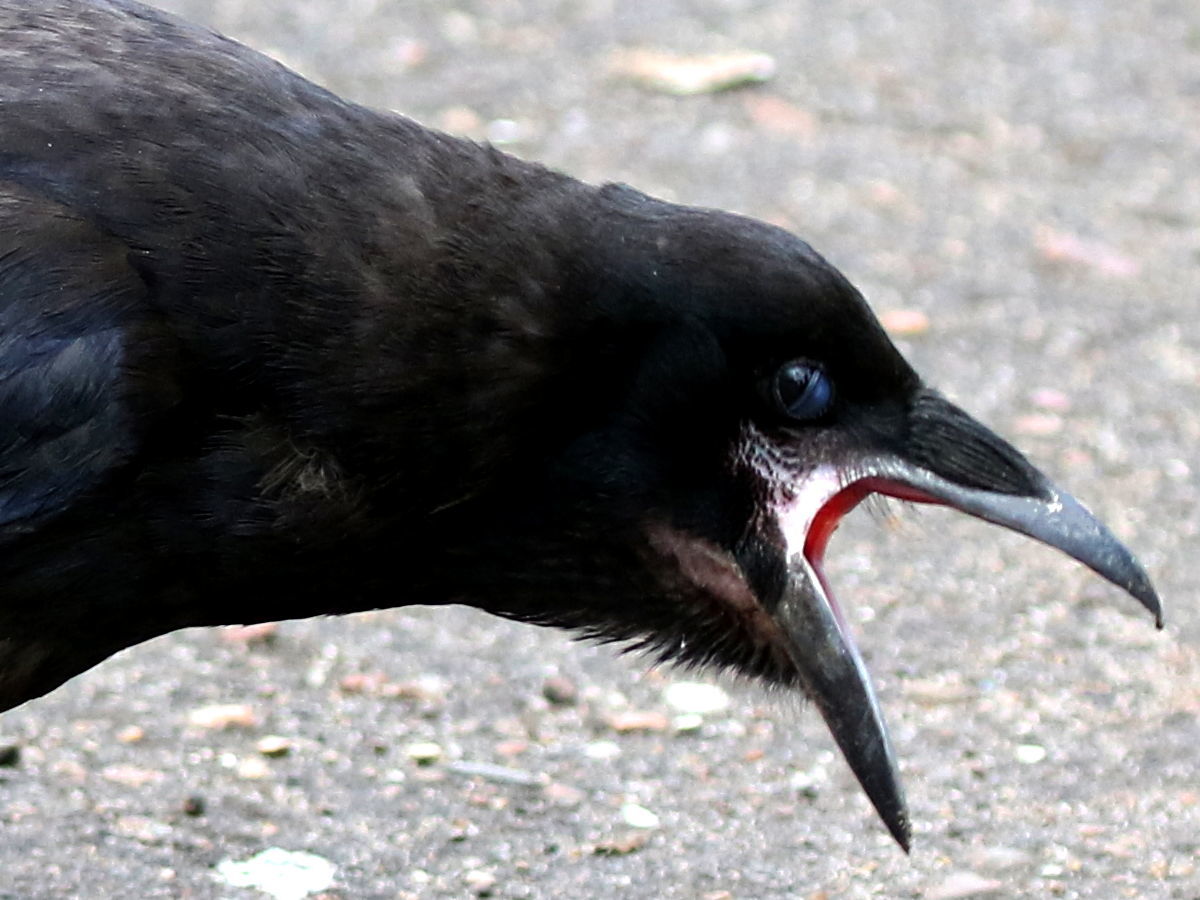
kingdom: Animalia
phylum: Chordata
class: Aves
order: Passeriformes
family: Corvidae
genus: Corvus
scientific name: Corvus corax
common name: Common raven
